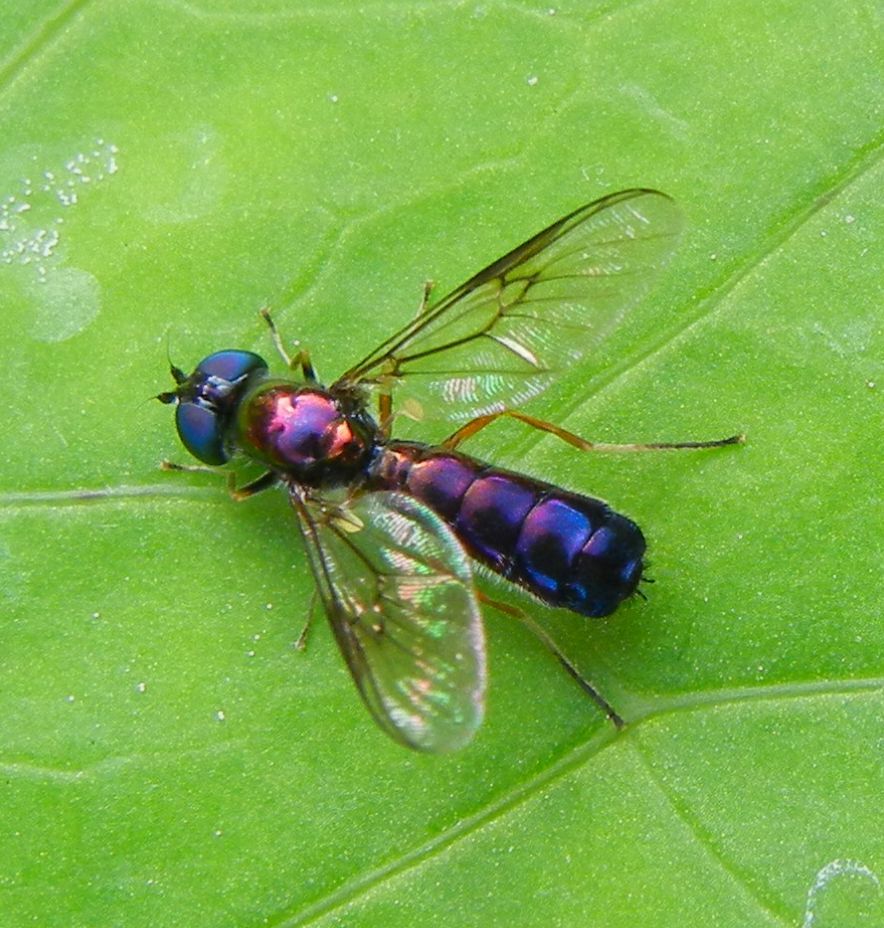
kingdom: Animalia
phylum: Arthropoda
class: Insecta
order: Diptera
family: Stratiomyidae
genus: Sargus
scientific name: Sargus flavipes
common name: Yellow-legged centurion
